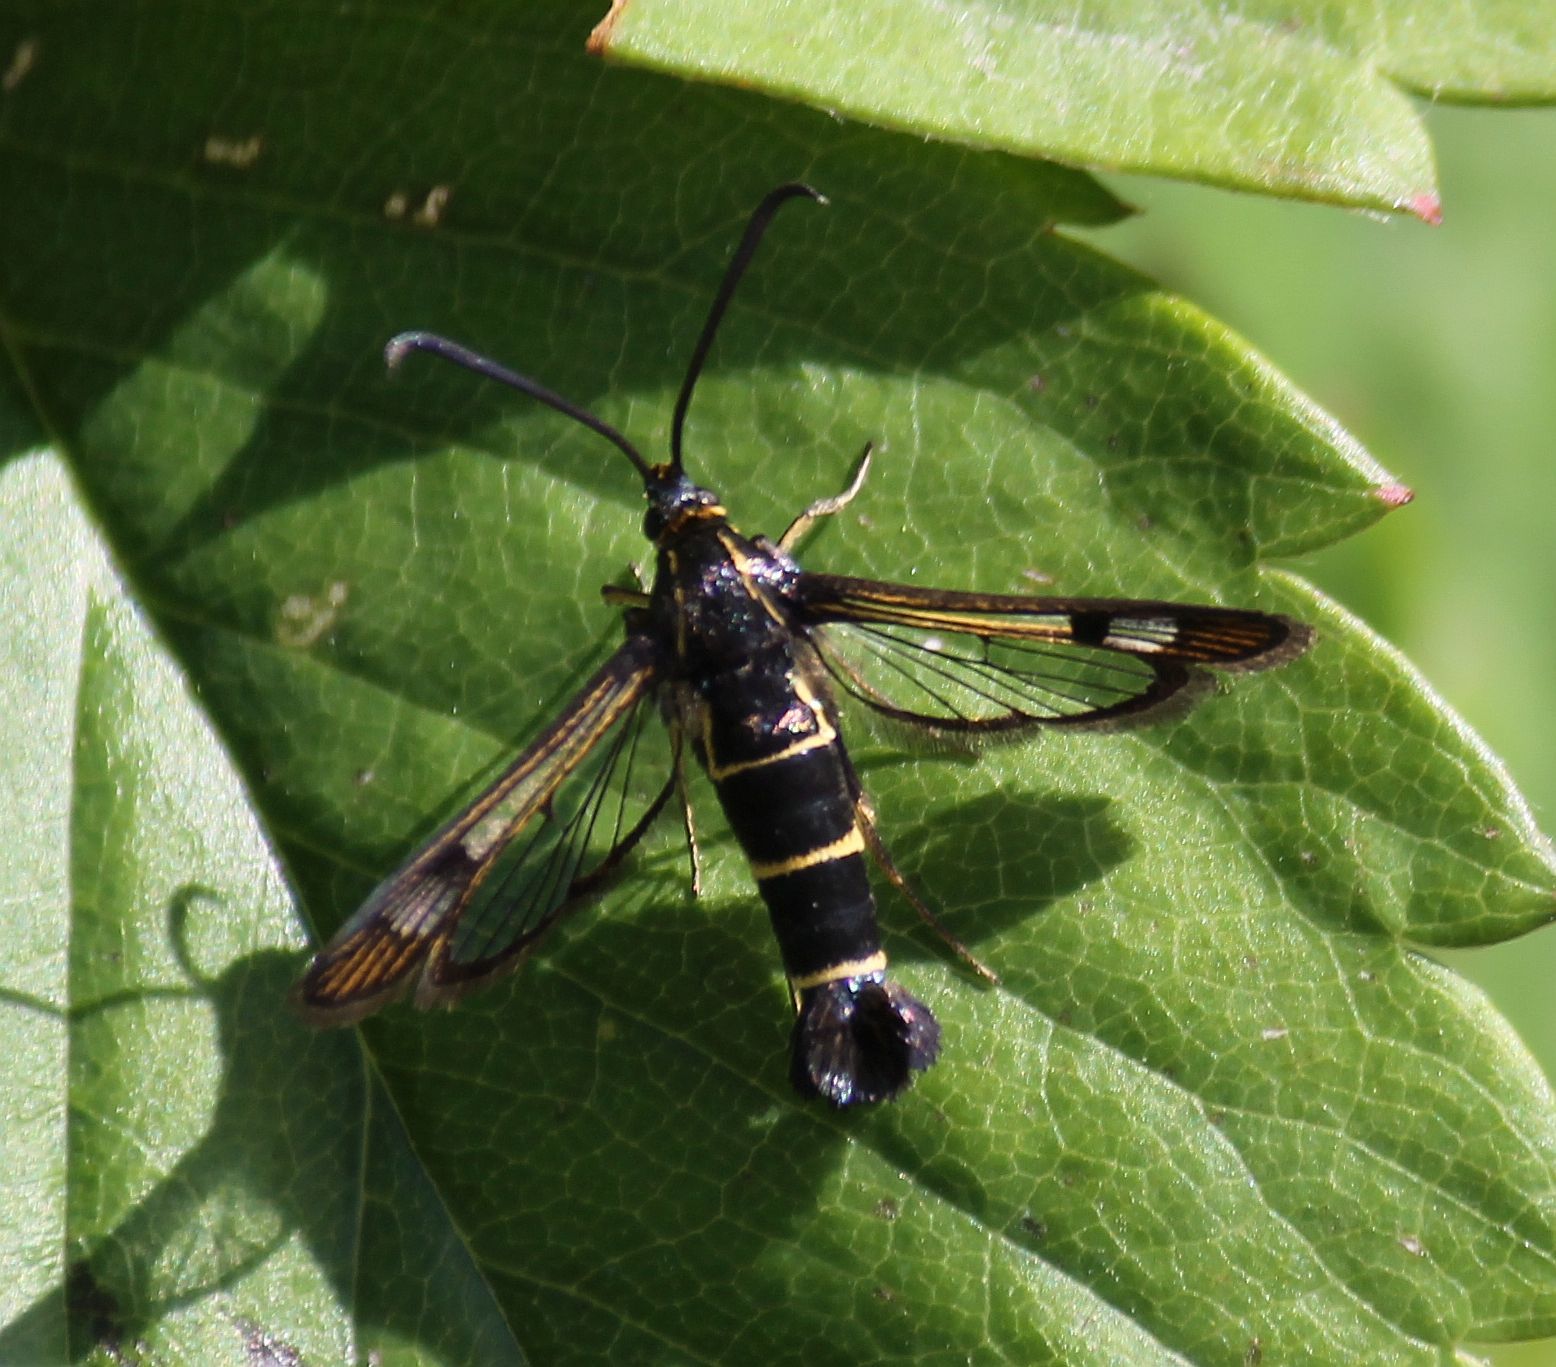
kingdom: Animalia
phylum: Arthropoda
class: Insecta
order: Lepidoptera
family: Sesiidae
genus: Synanthedon
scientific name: Synanthedon tipuliformis
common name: Currant clearwing
